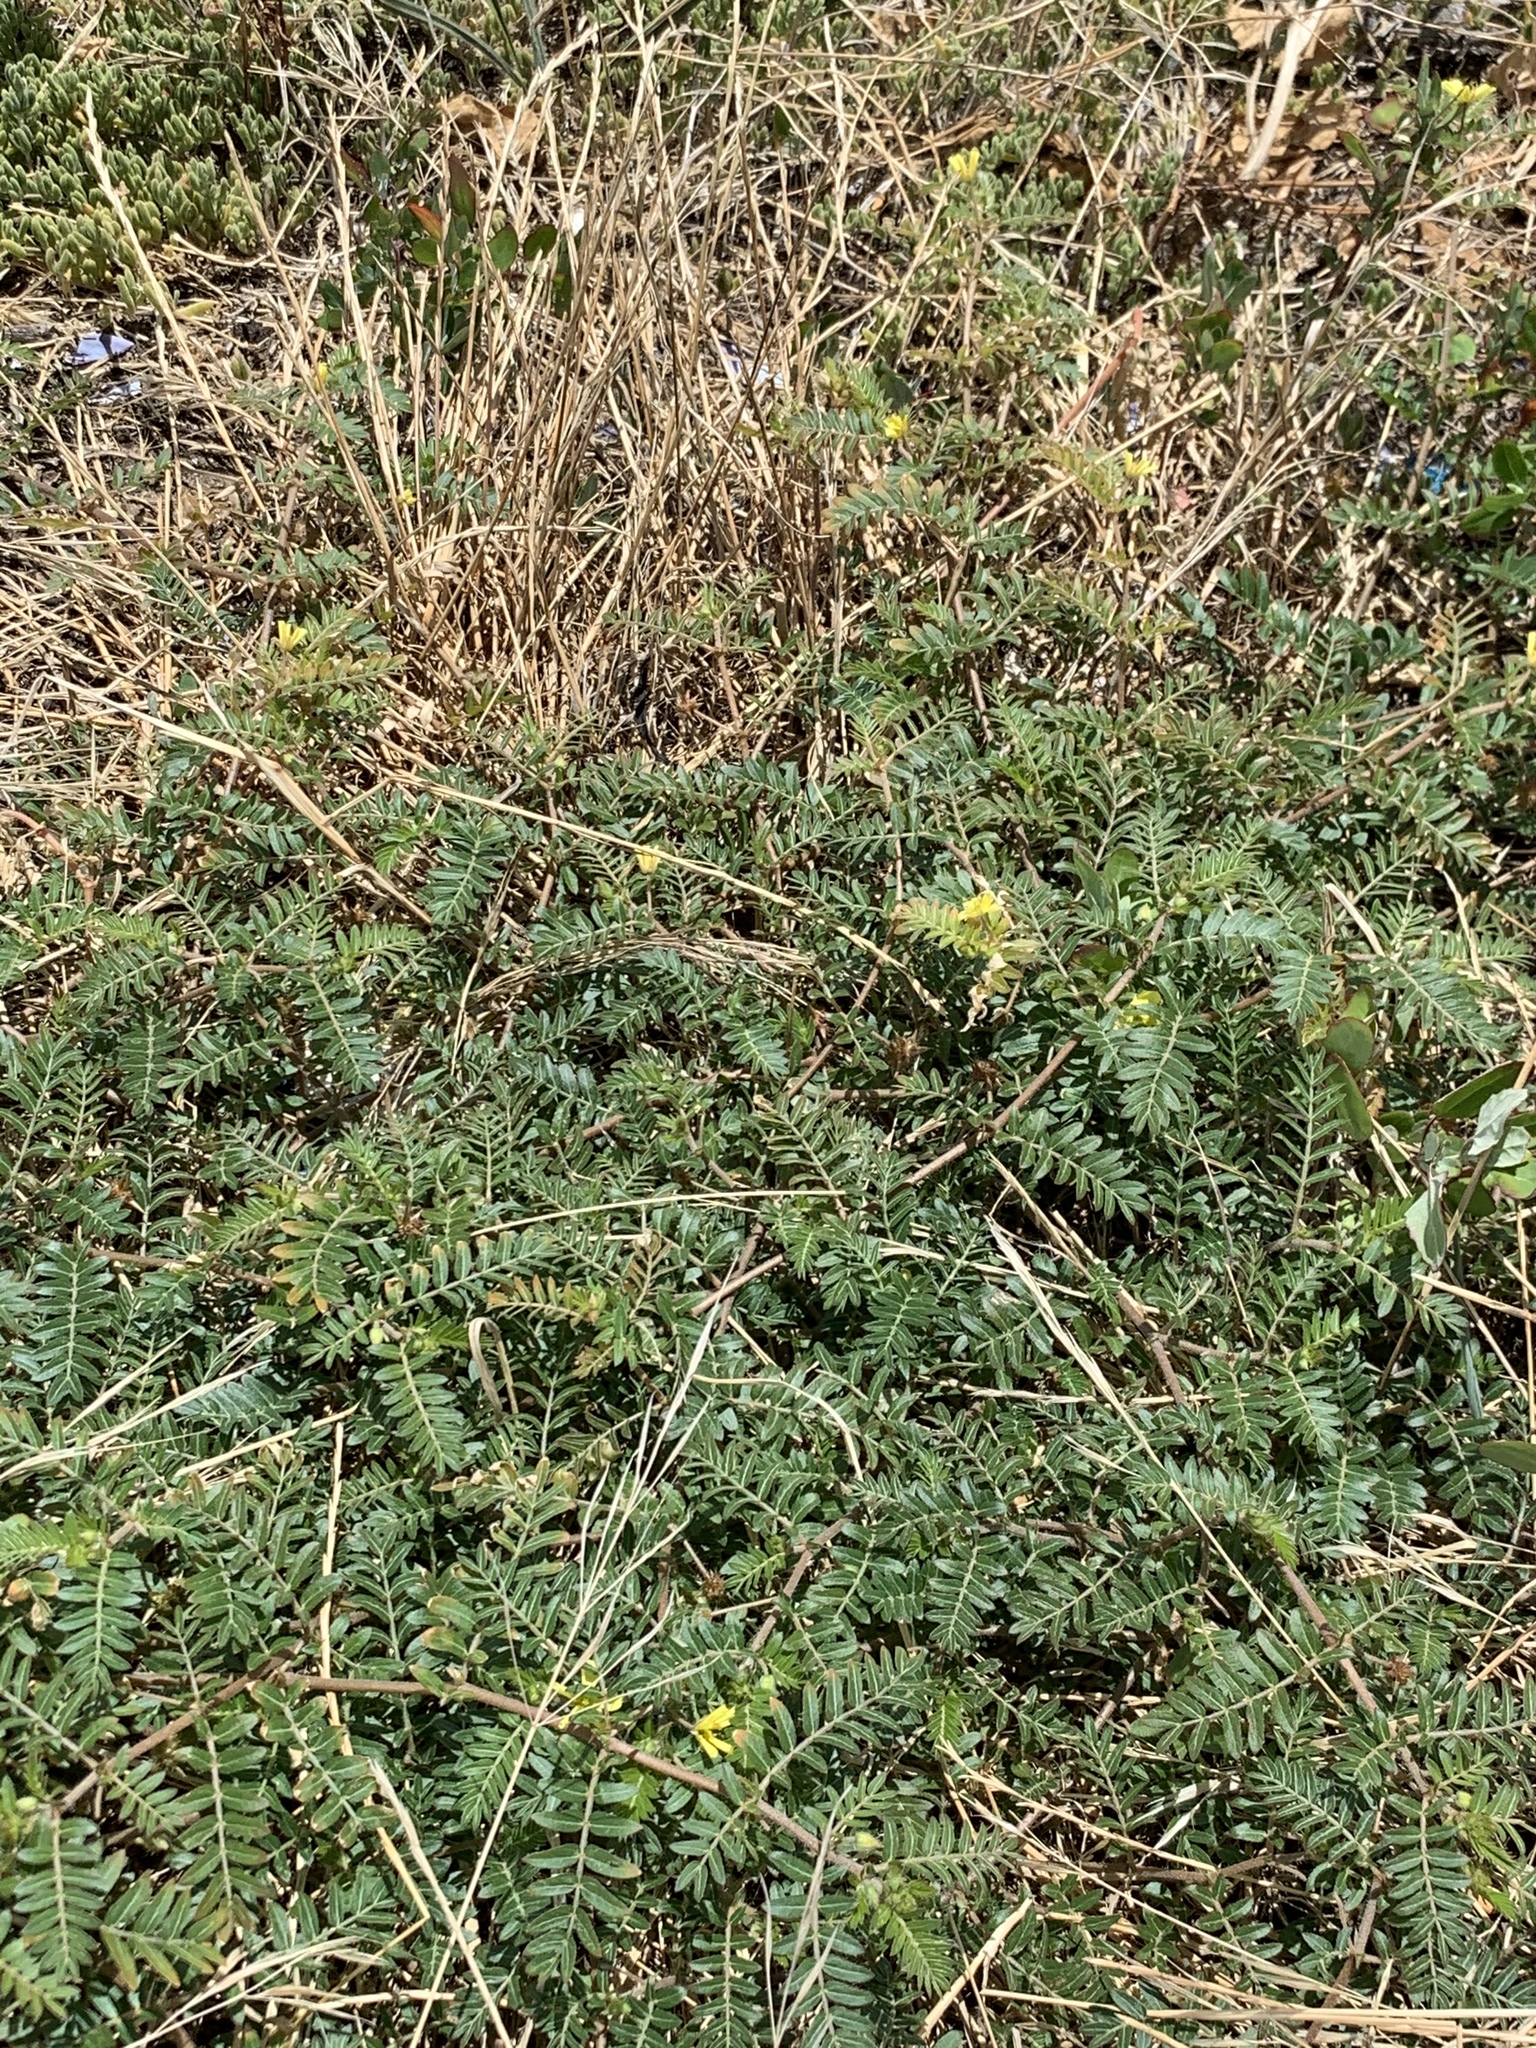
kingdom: Plantae
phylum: Tracheophyta
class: Magnoliopsida
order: Zygophyllales
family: Zygophyllaceae
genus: Tribulus
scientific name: Tribulus terrestris
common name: Puncturevine
